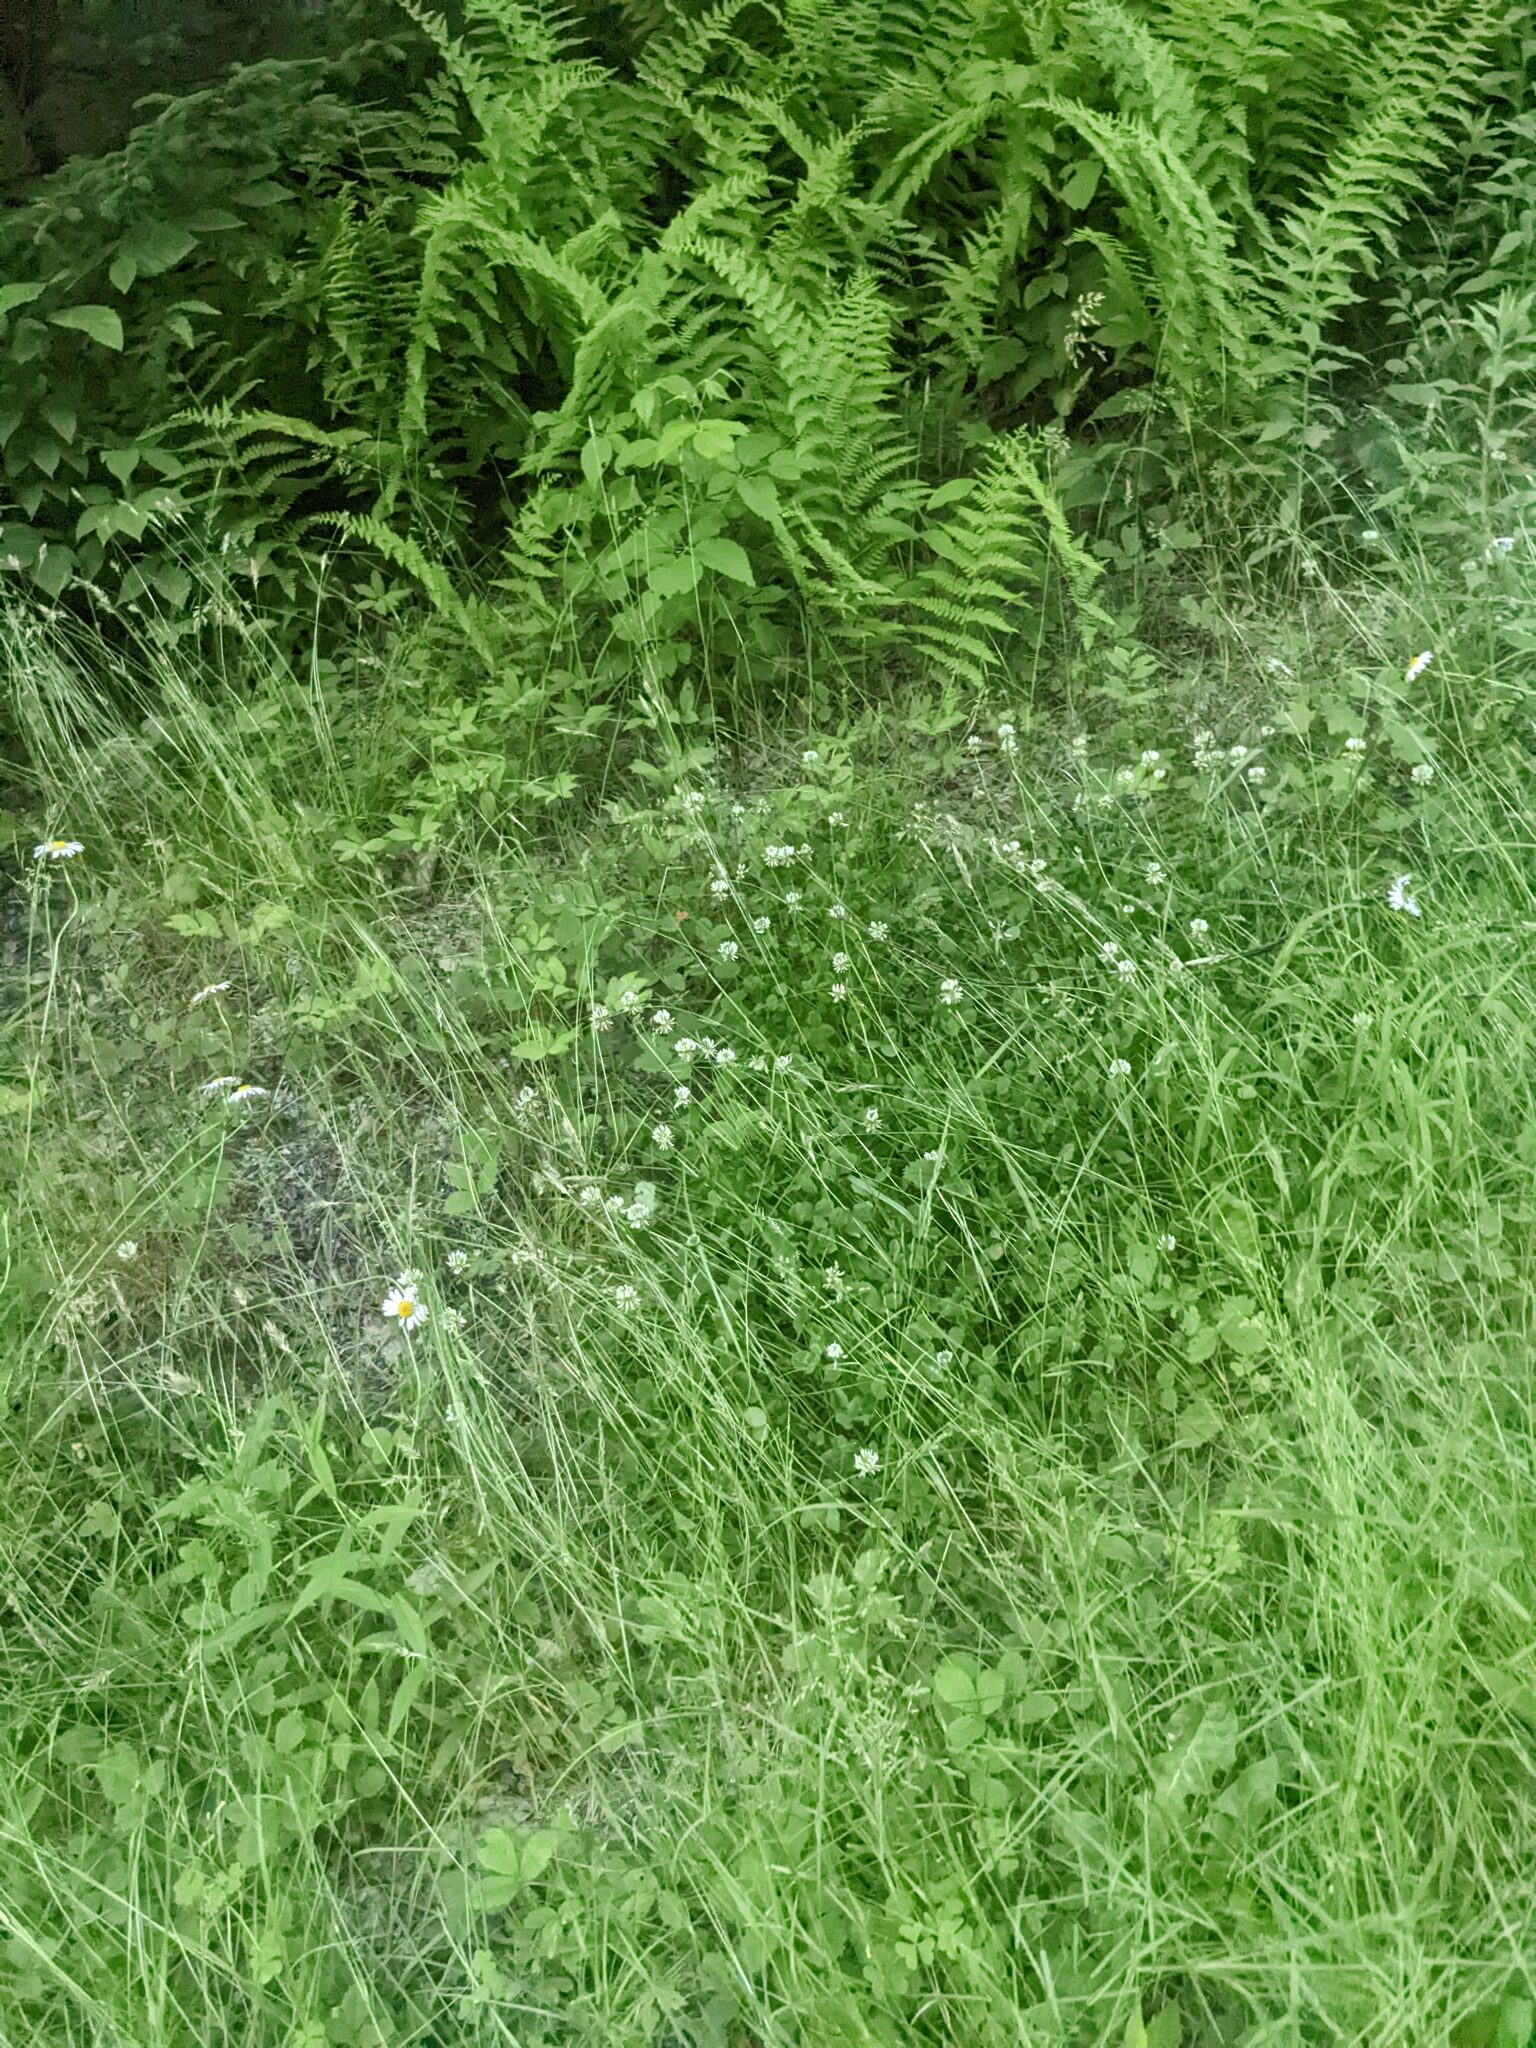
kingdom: Plantae
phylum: Tracheophyta
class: Magnoliopsida
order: Fabales
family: Fabaceae
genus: Trifolium
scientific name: Trifolium repens
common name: White clover
